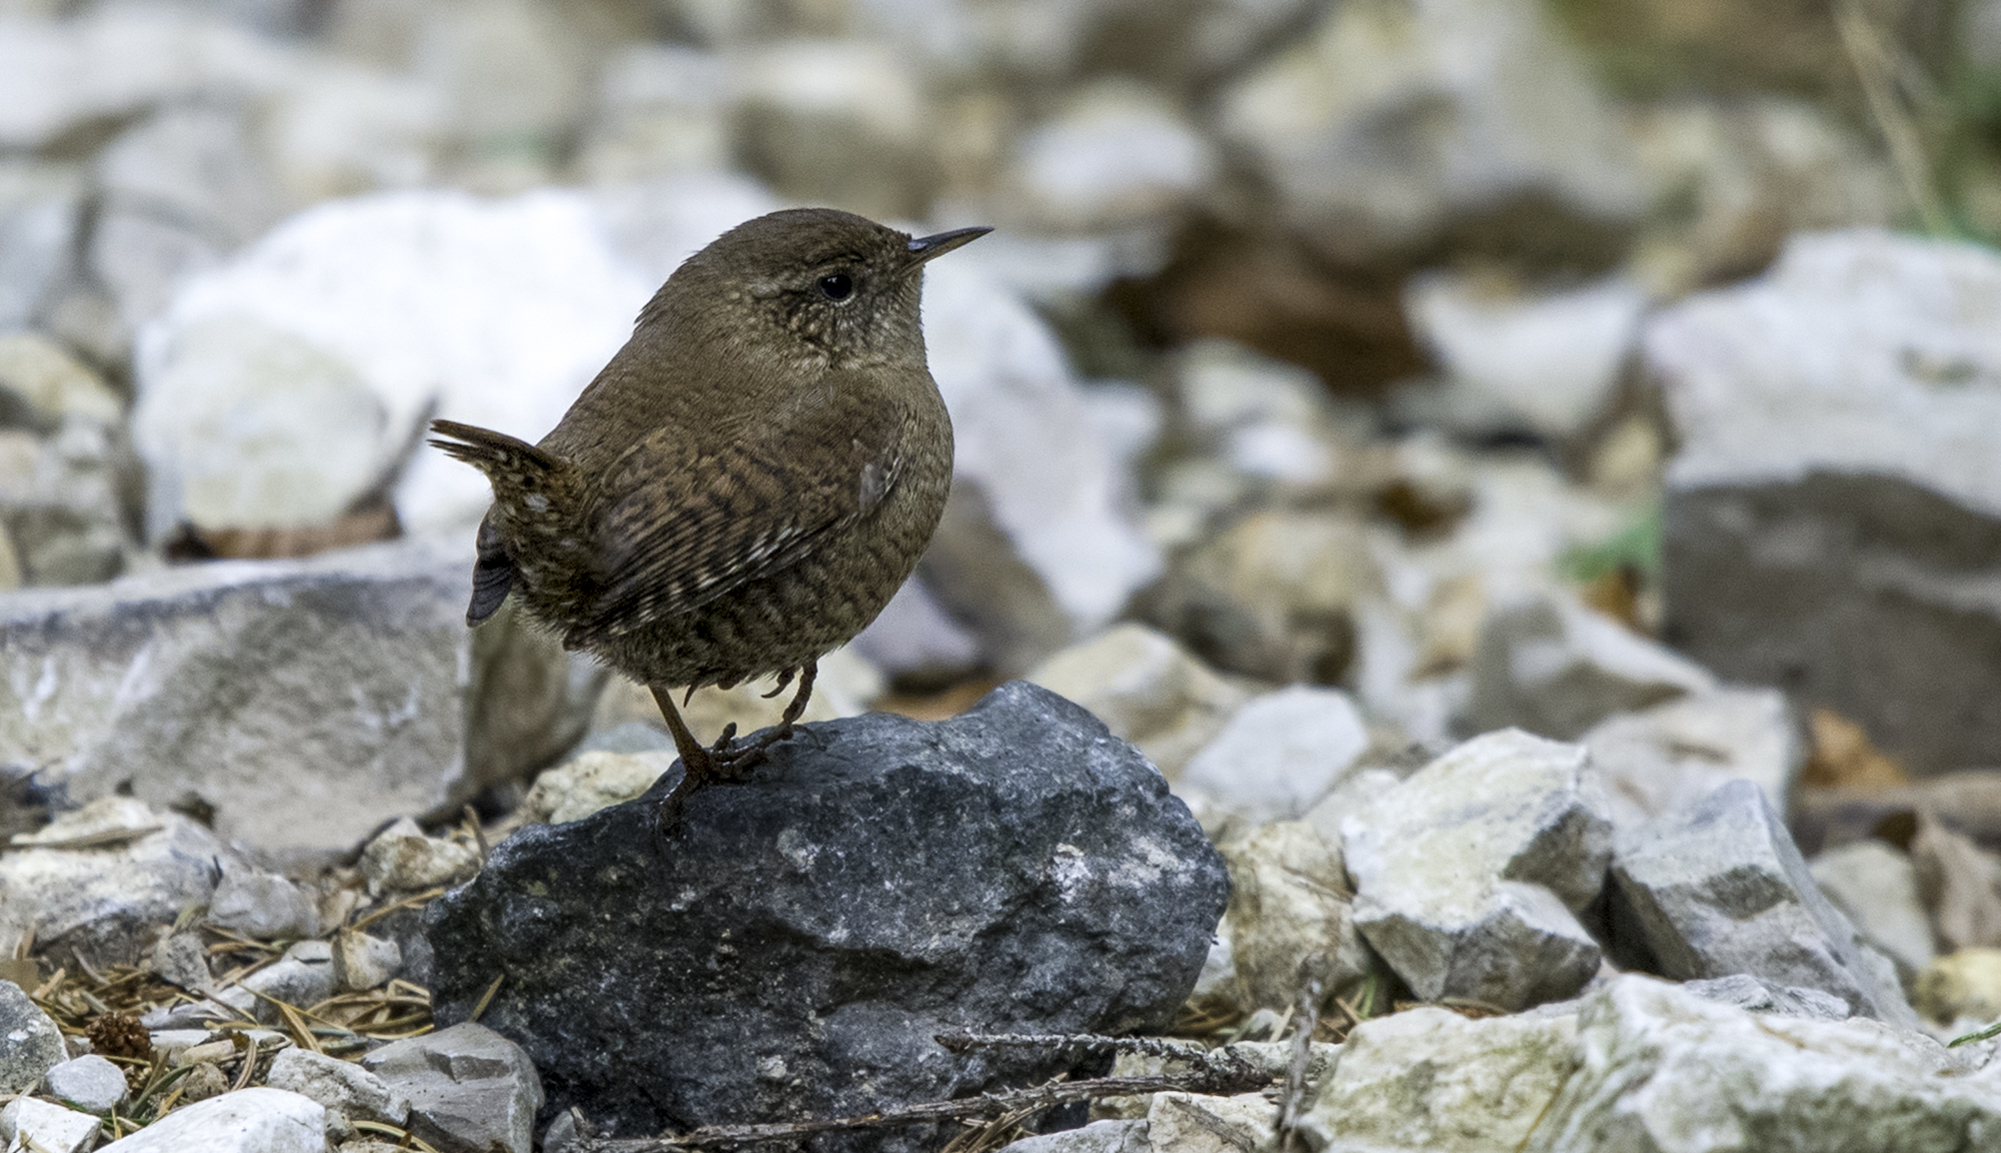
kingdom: Animalia
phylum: Chordata
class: Aves
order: Passeriformes
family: Troglodytidae
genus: Troglodytes
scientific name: Troglodytes troglodytes
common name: Eurasian wren
